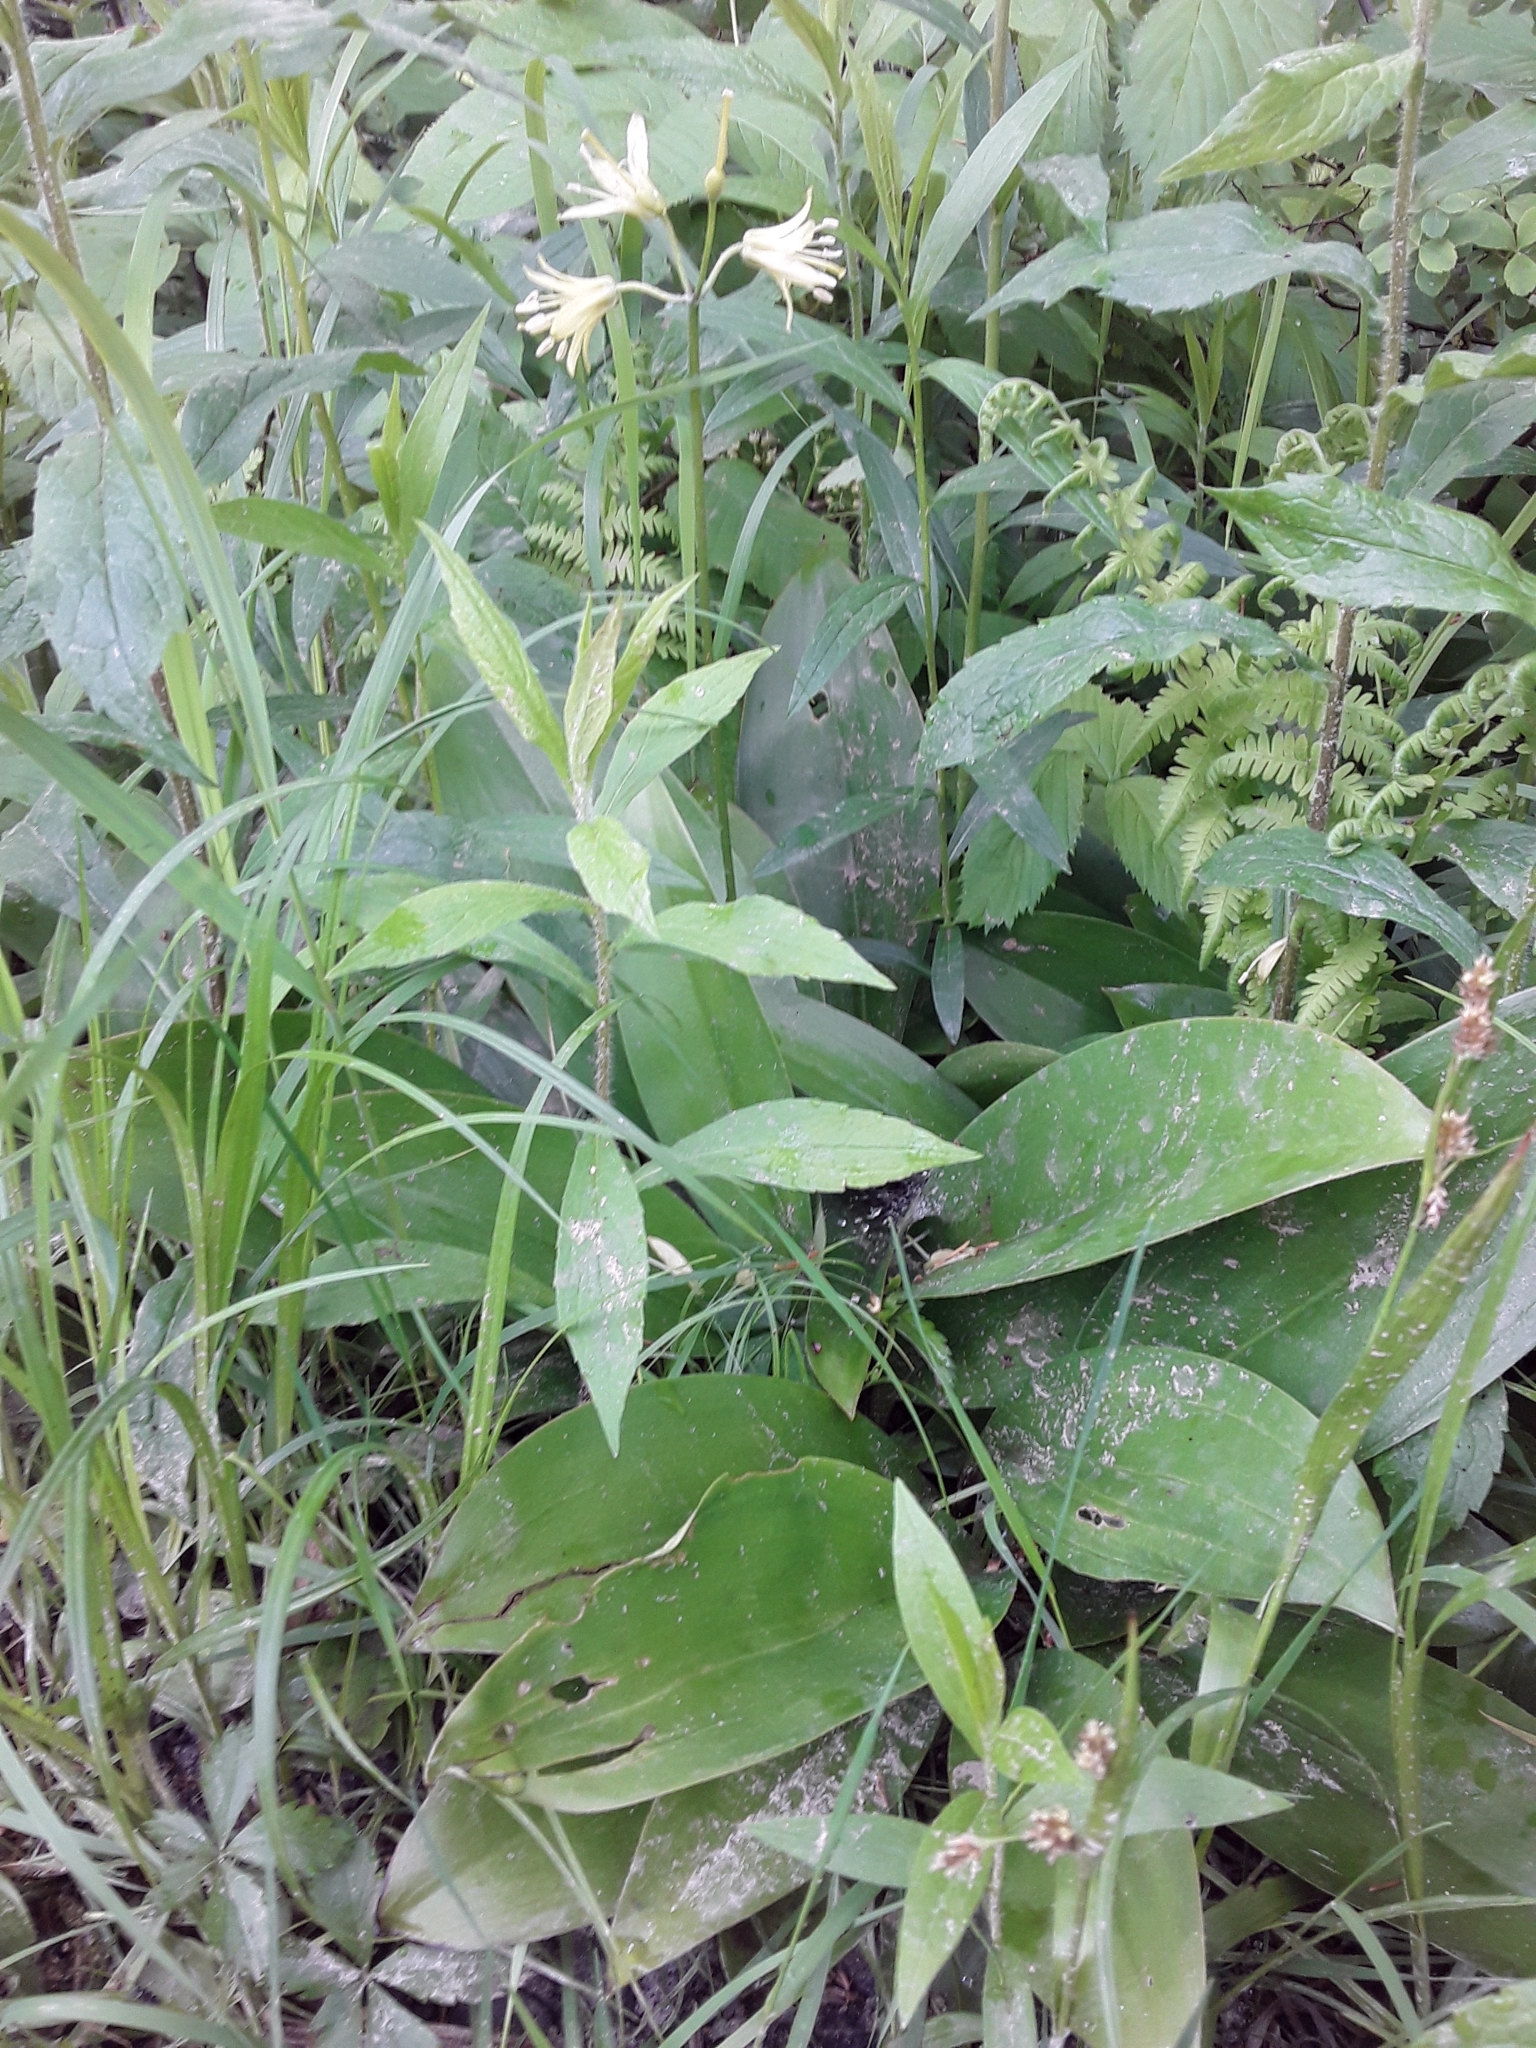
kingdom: Plantae
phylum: Tracheophyta
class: Liliopsida
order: Liliales
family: Liliaceae
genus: Clintonia
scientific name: Clintonia borealis
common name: Yellow clintonia
